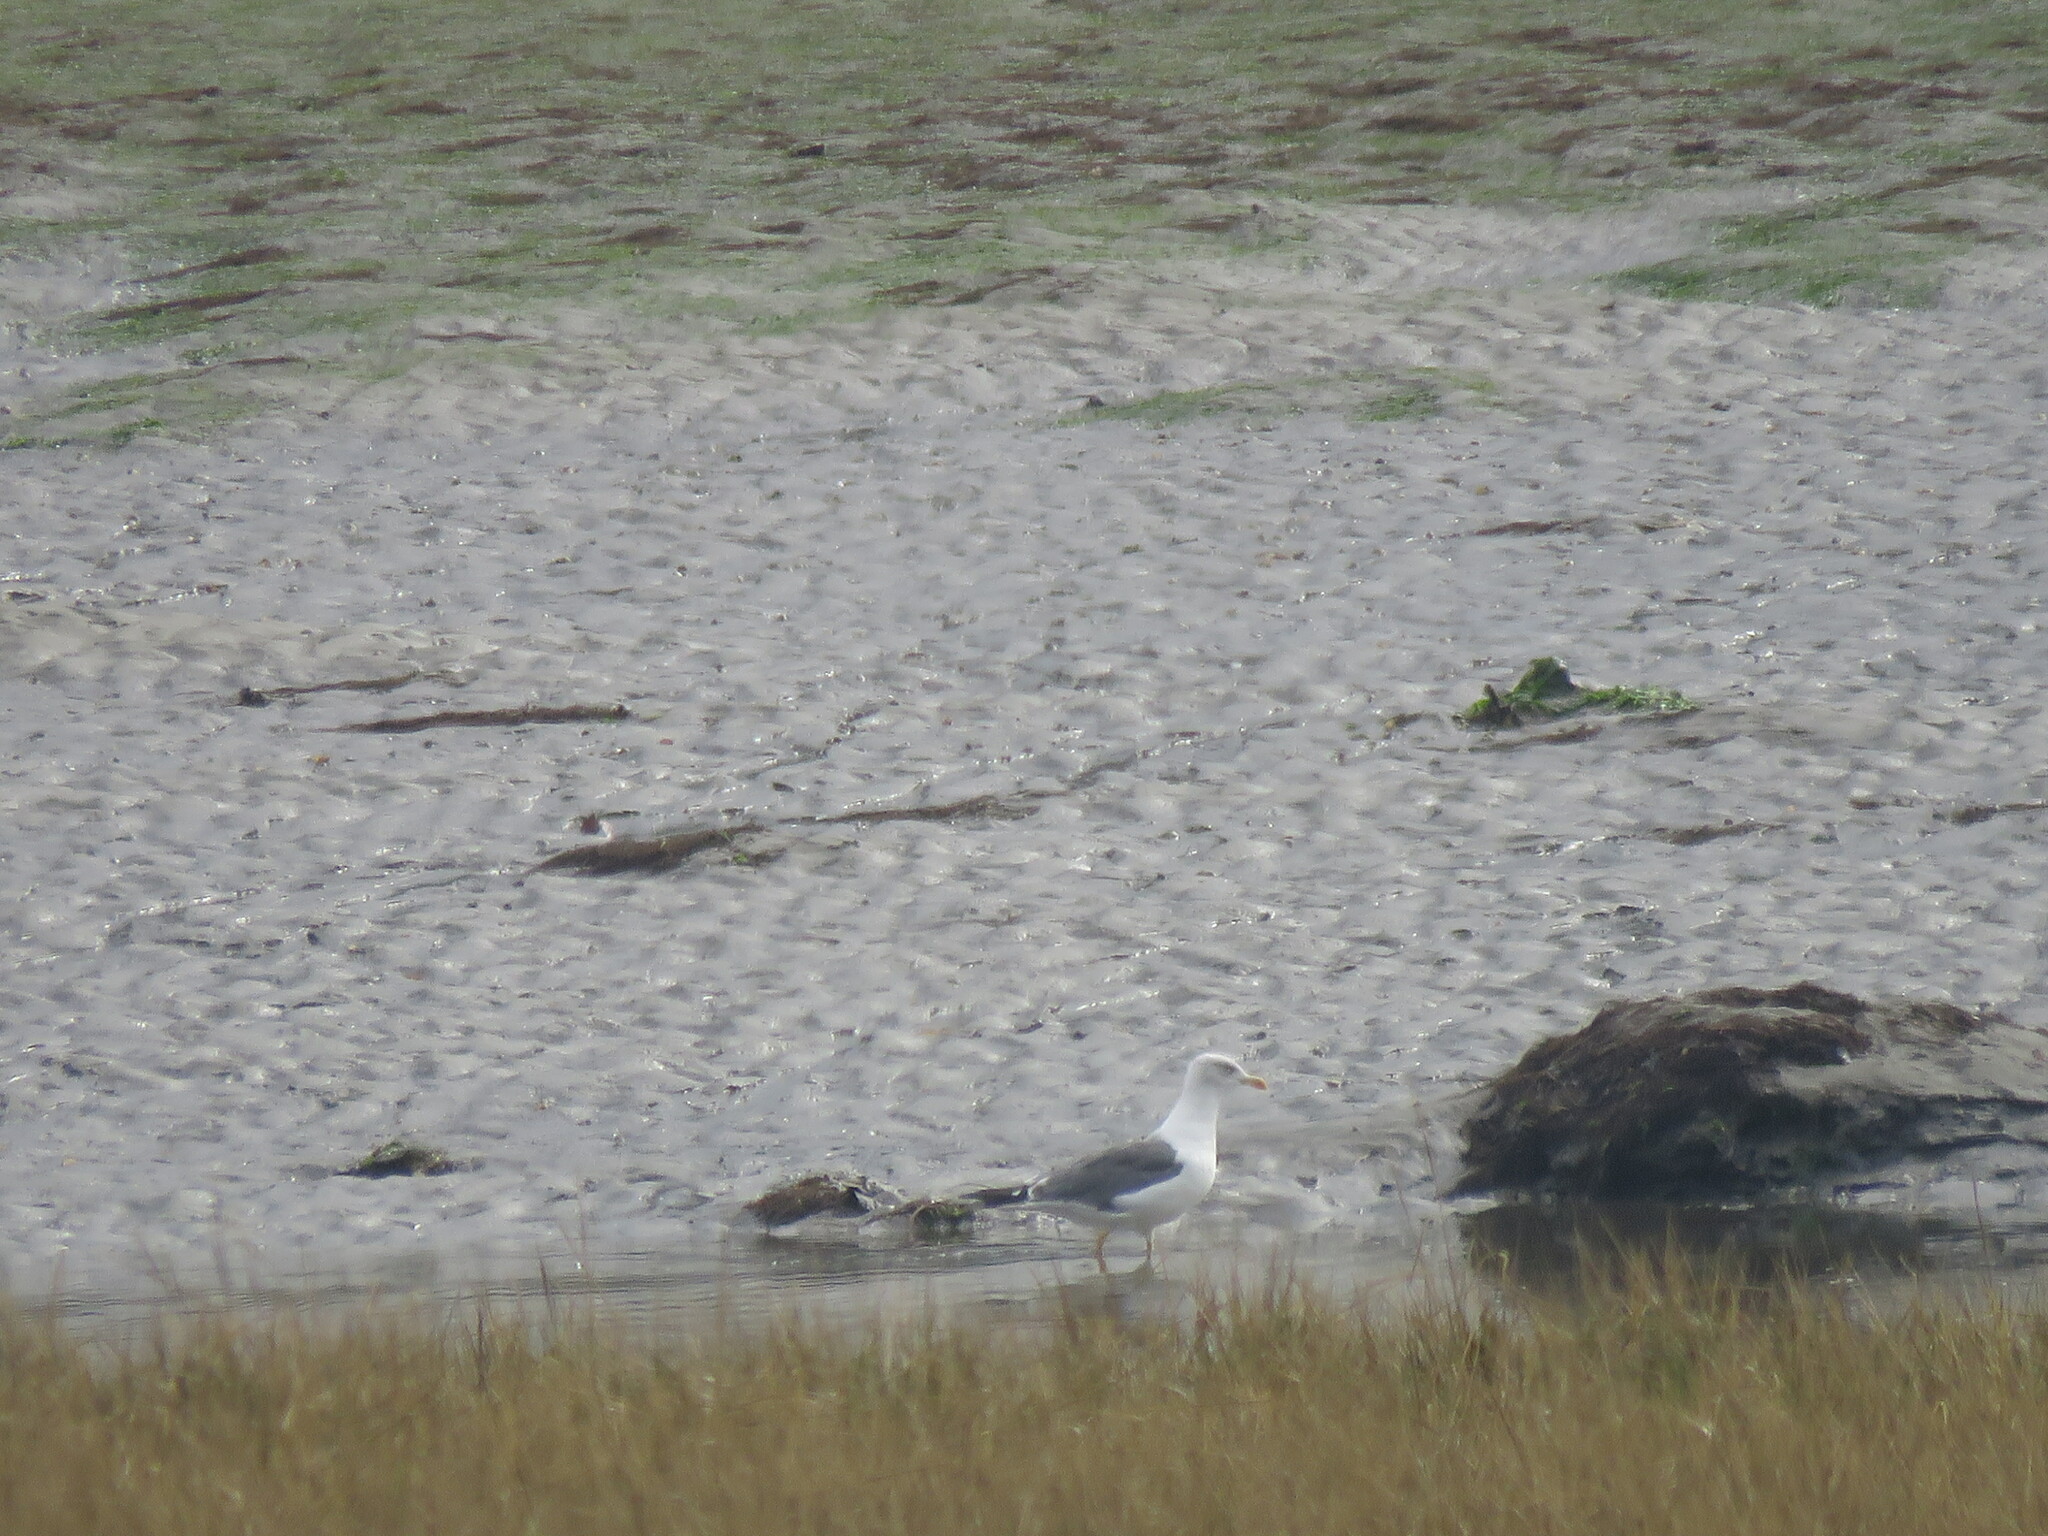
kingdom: Animalia
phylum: Chordata
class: Aves
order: Charadriiformes
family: Laridae
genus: Larus
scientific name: Larus michahellis
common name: Yellow-legged gull
